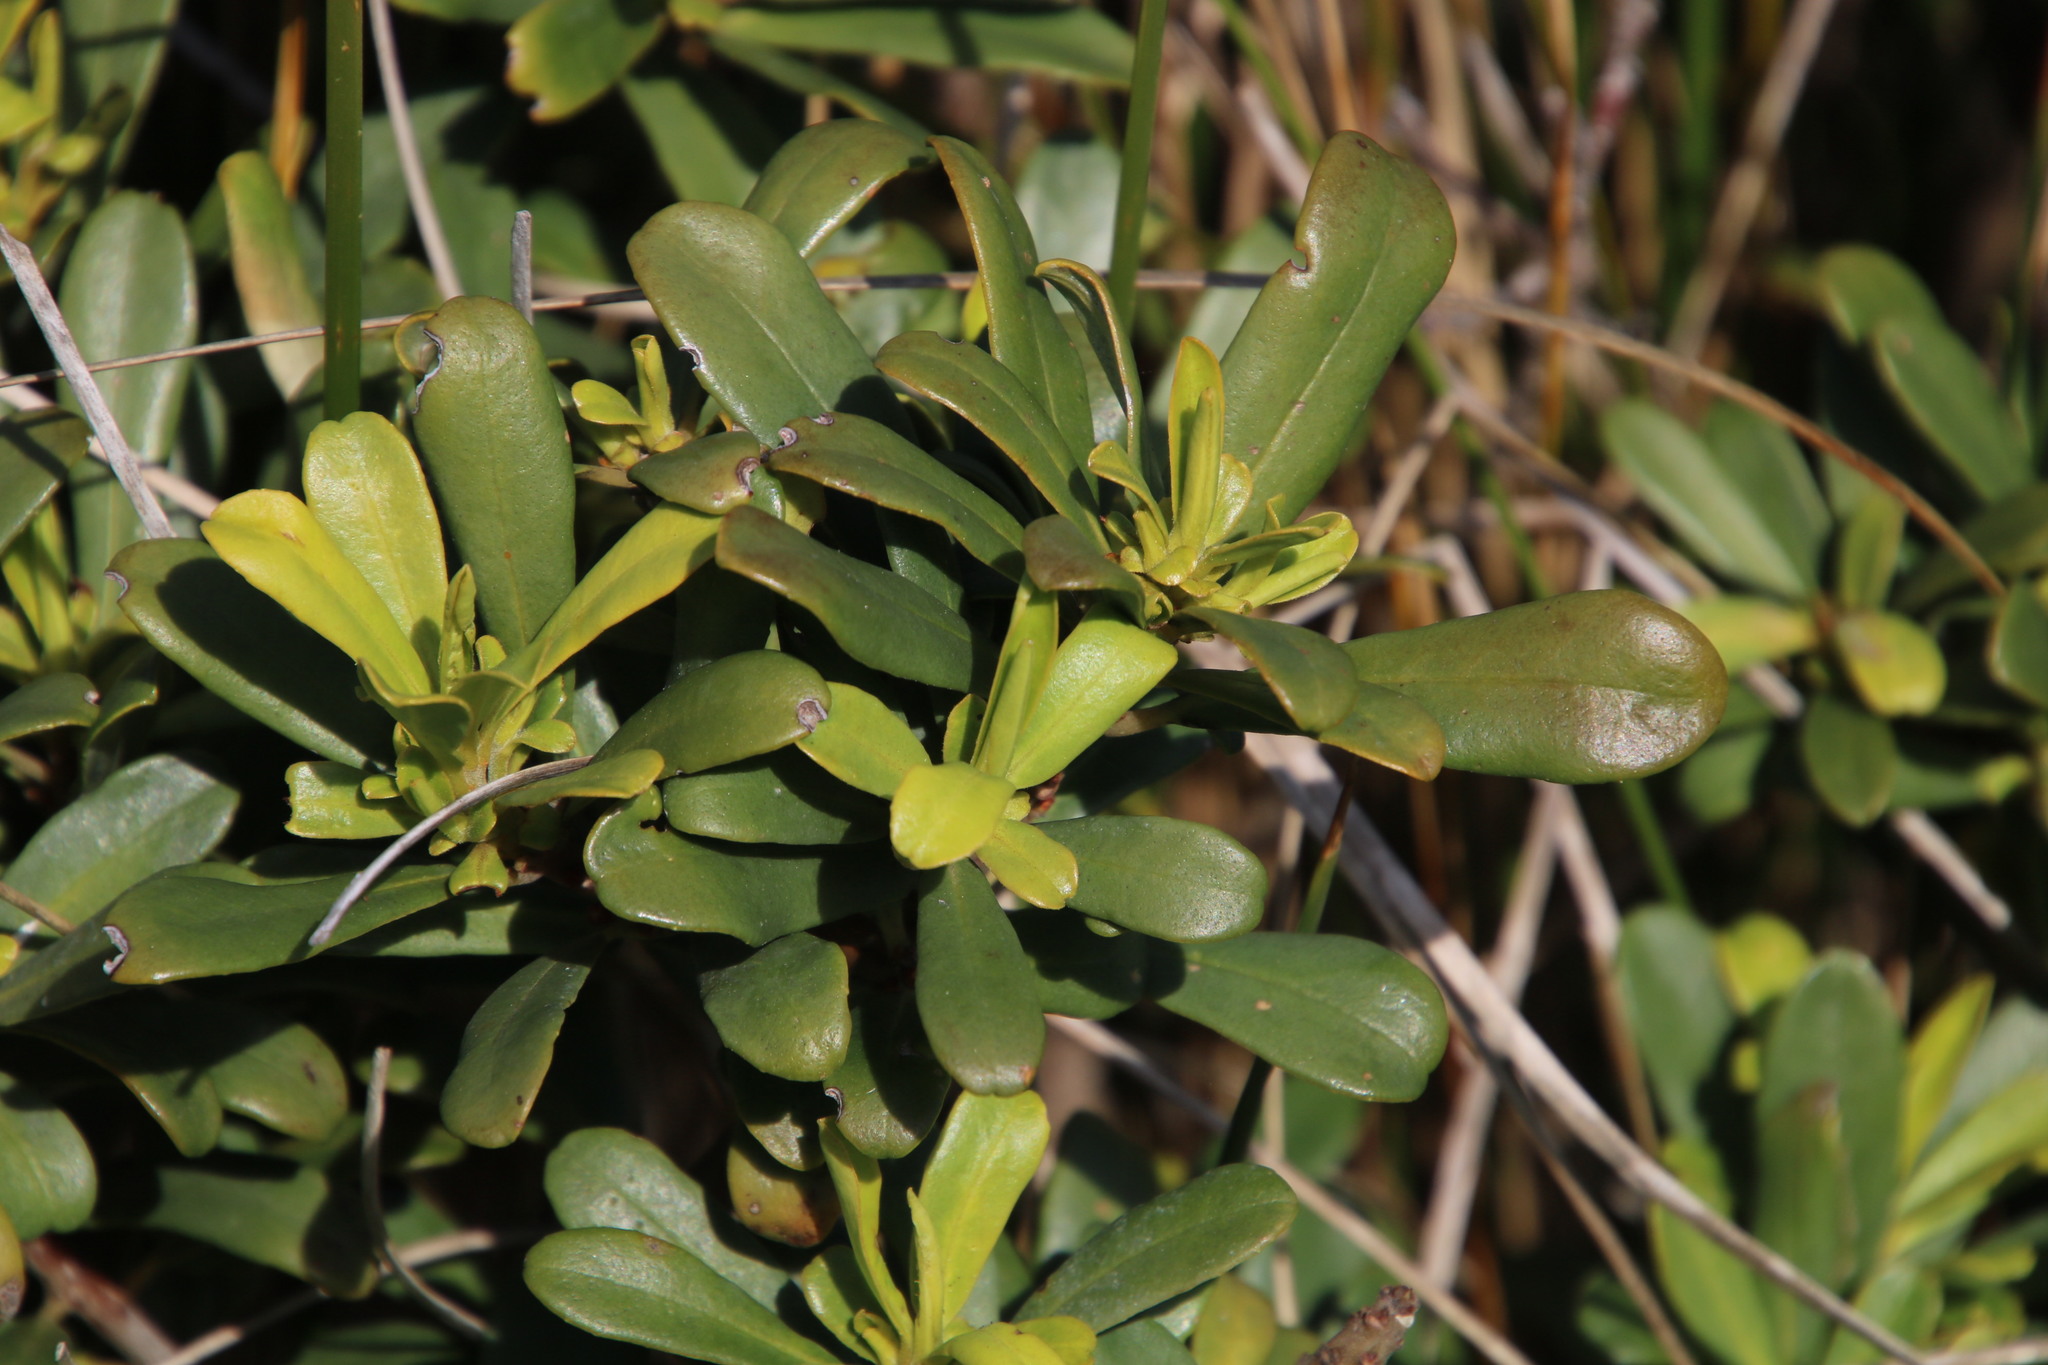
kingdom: Plantae
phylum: Tracheophyta
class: Magnoliopsida
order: Ericales
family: Primulaceae
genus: Myrsine
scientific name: Myrsine gilliana
